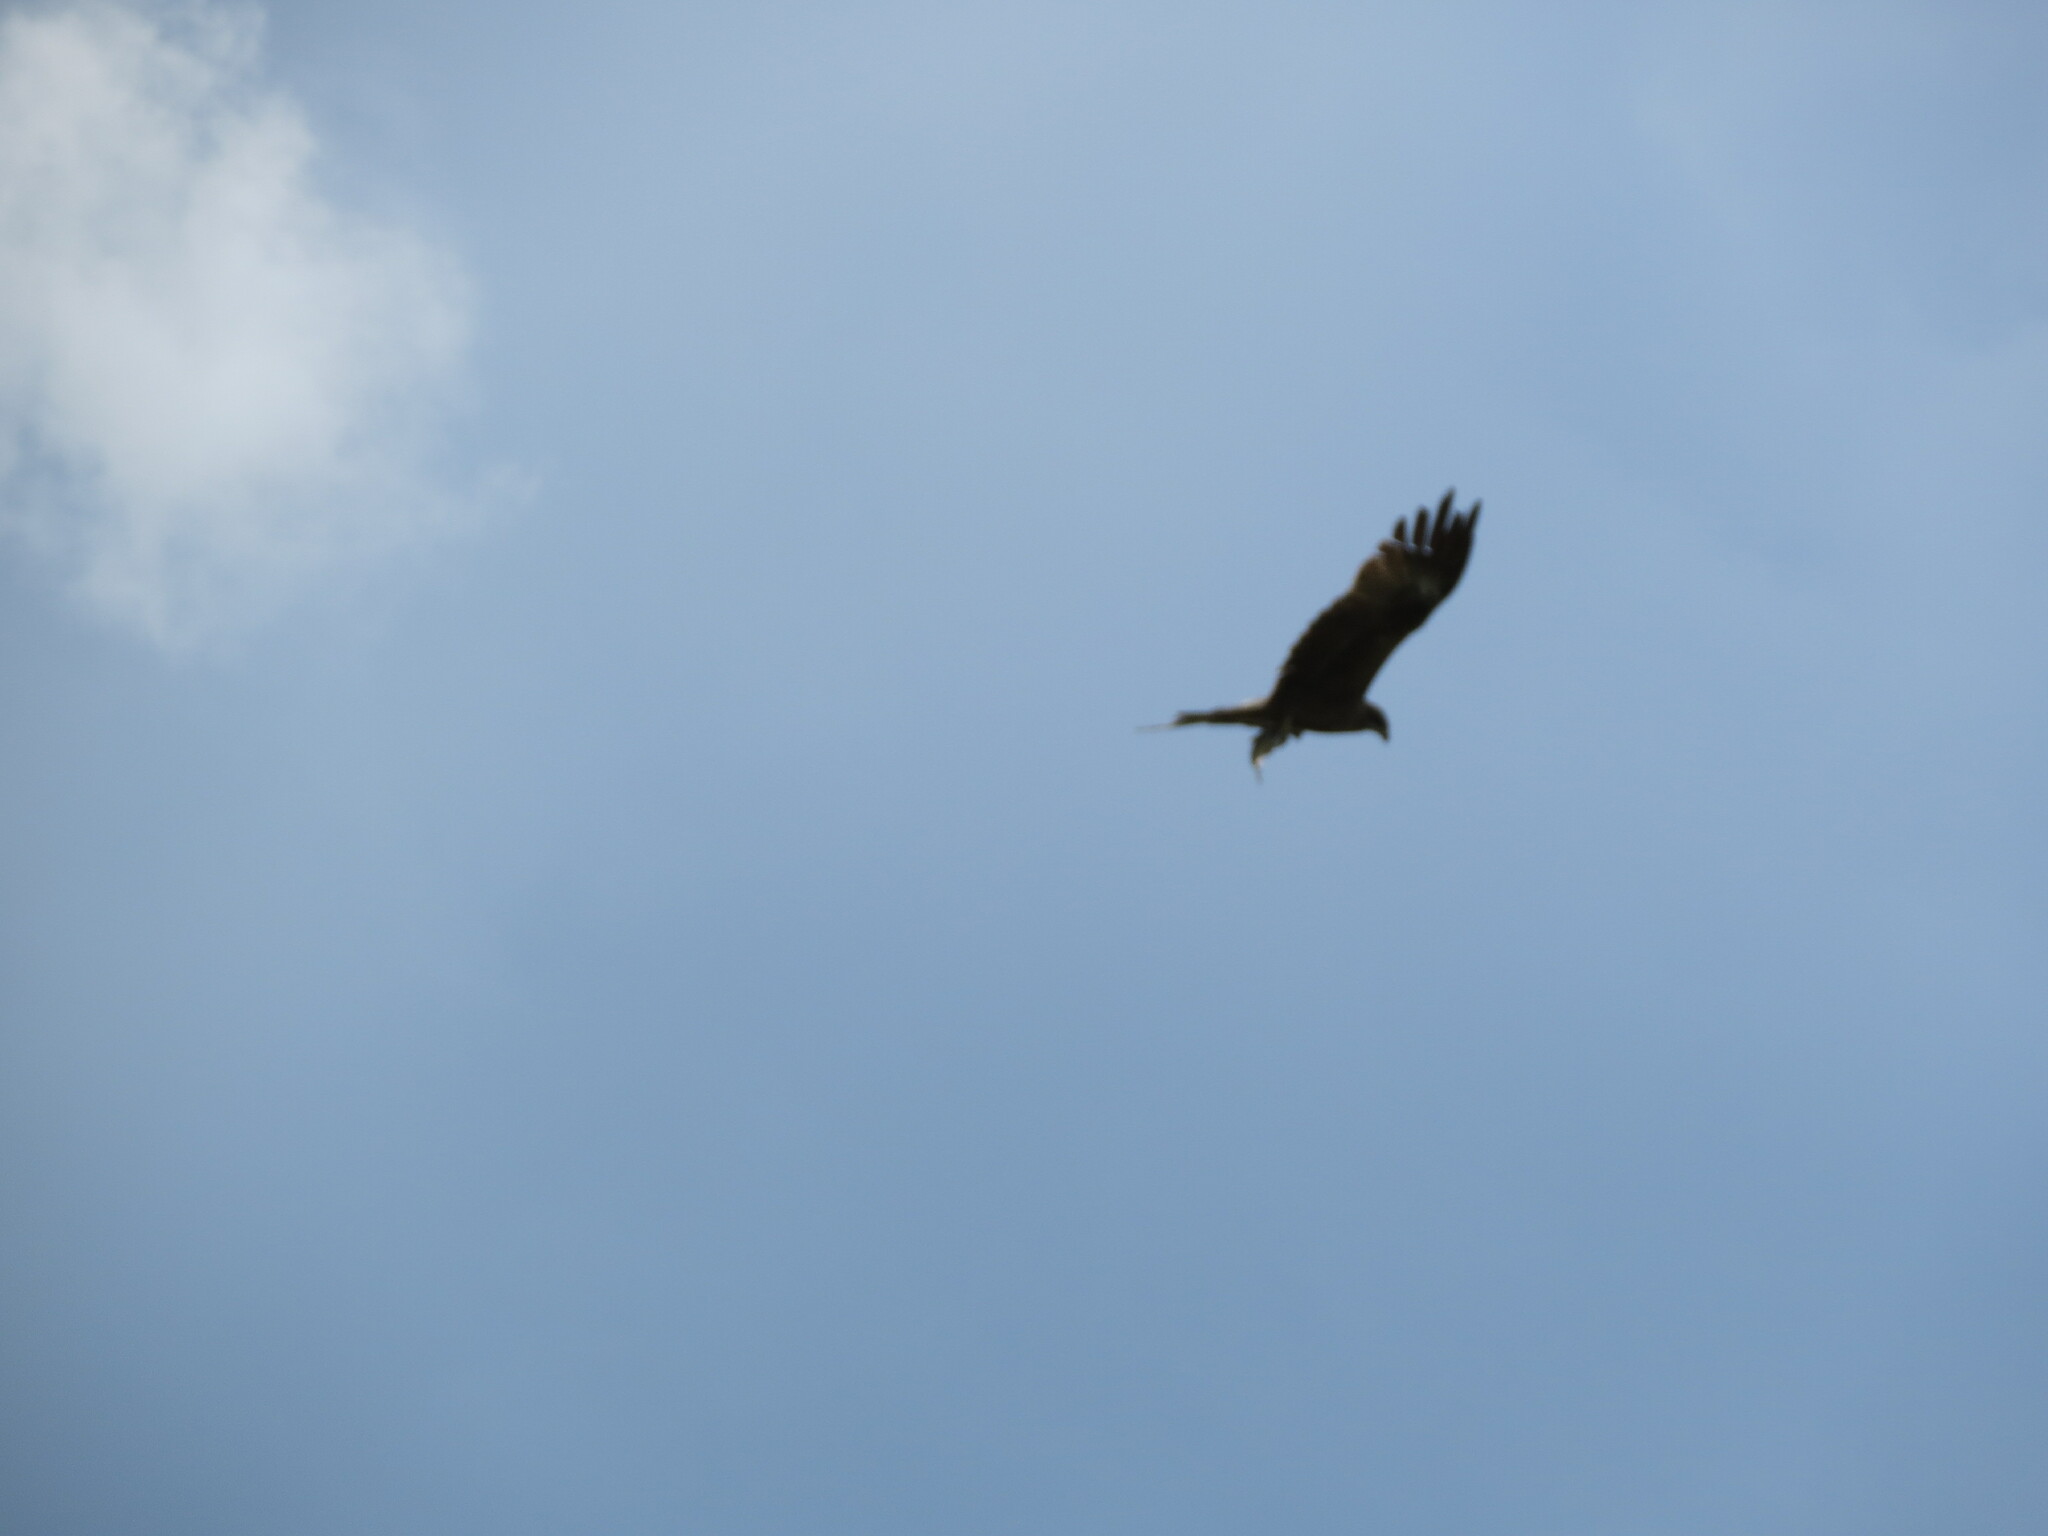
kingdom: Animalia
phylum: Chordata
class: Aves
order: Accipitriformes
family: Accipitridae
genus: Milvus
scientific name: Milvus migrans
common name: Black kite
